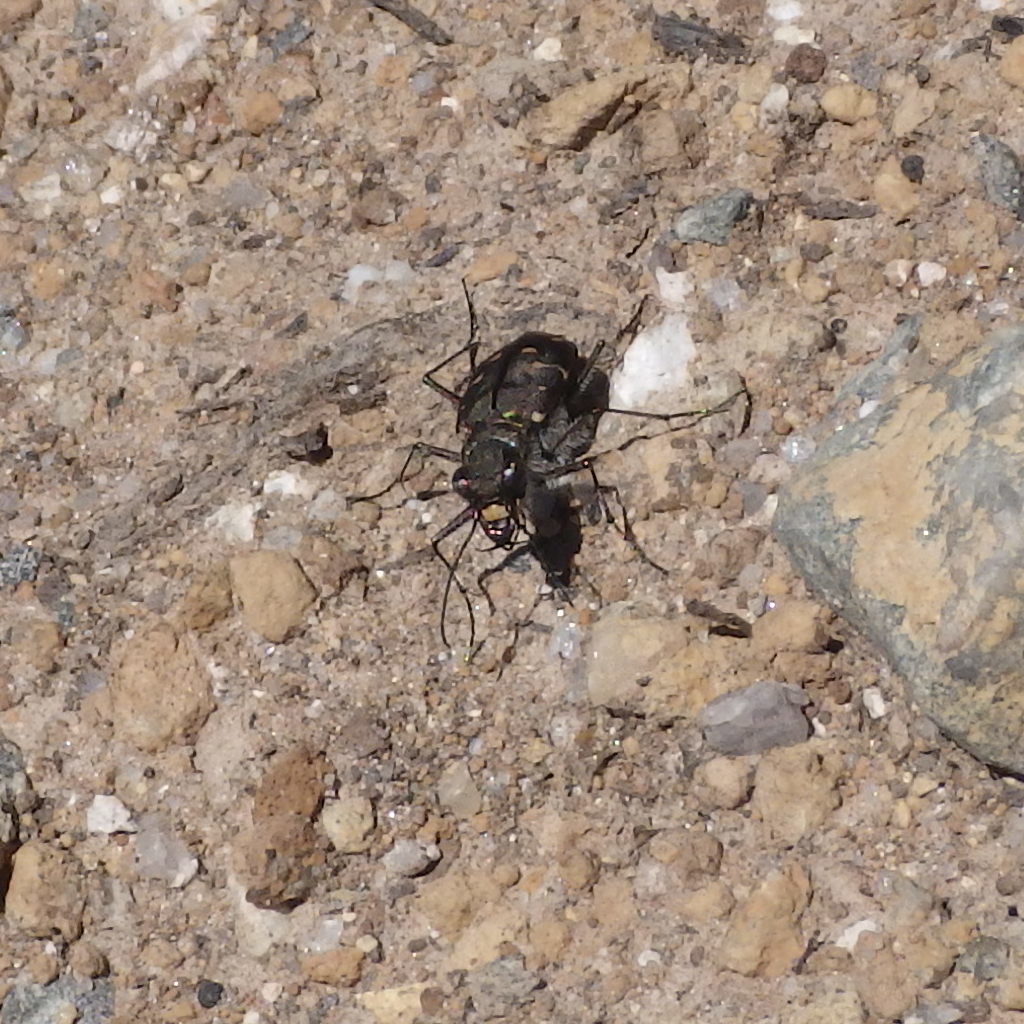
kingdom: Animalia
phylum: Arthropoda
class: Insecta
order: Coleoptera
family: Carabidae
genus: Cicindela
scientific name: Cicindela duodecimguttata
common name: Twelve-spotted tiger beetle
